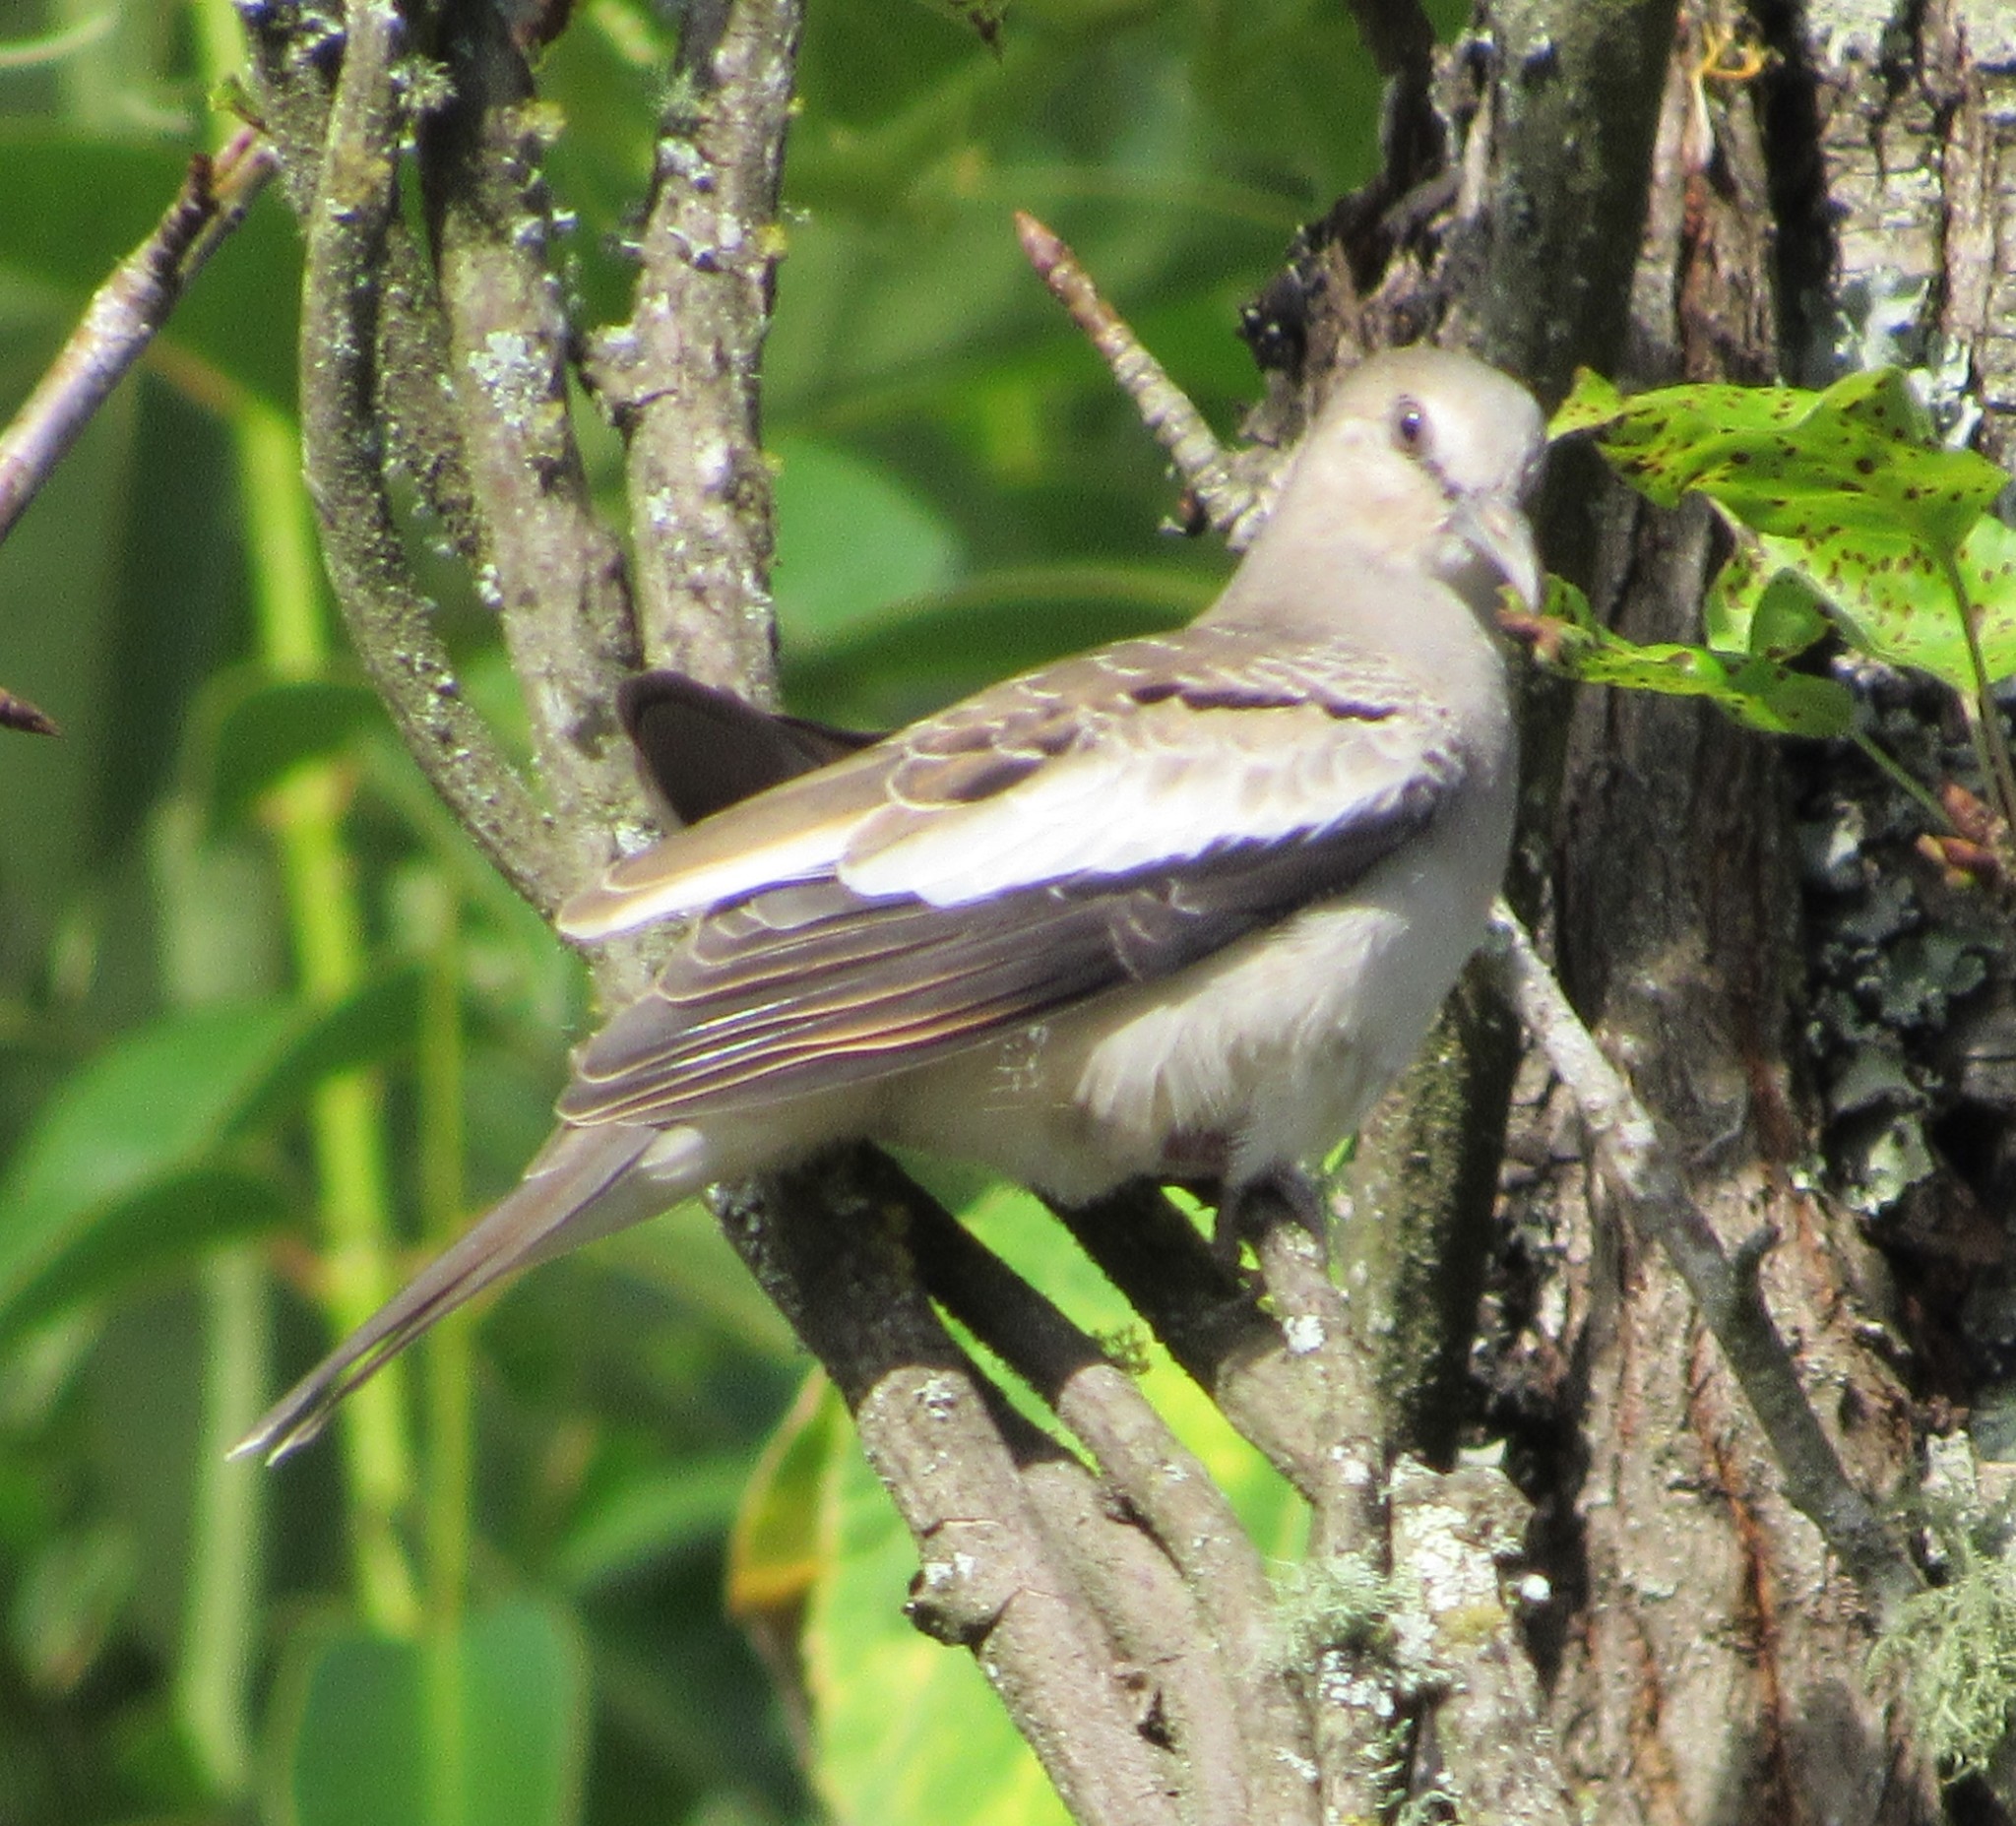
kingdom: Animalia
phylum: Chordata
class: Aves
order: Columbiformes
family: Columbidae
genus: Columbina
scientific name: Columbina picui
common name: Picui ground dove
